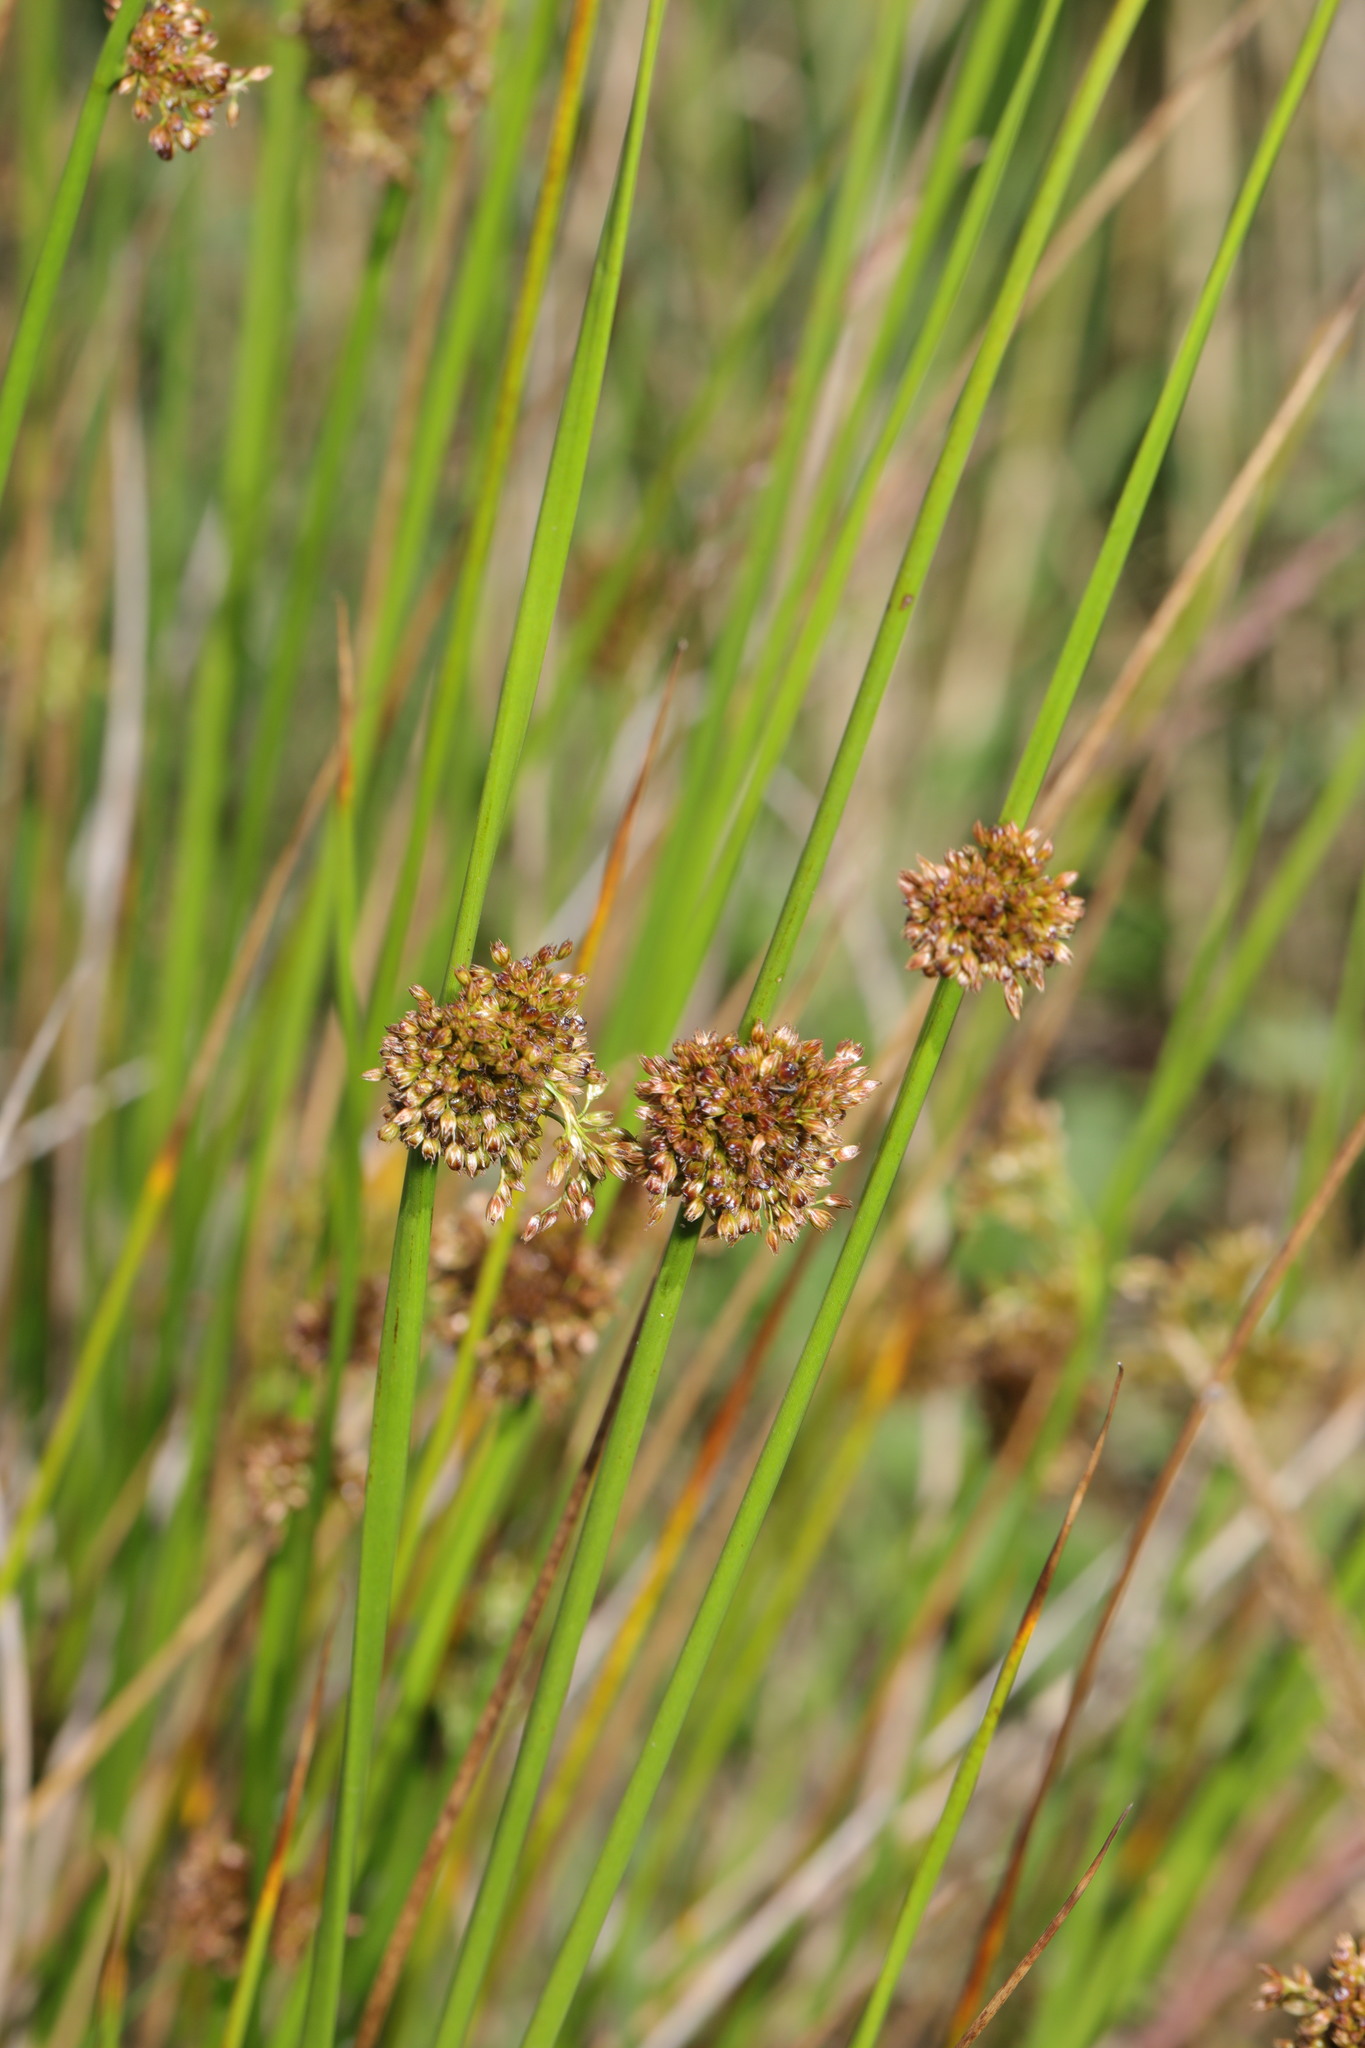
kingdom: Plantae
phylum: Tracheophyta
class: Liliopsida
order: Poales
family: Juncaceae
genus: Juncus
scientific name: Juncus effusus
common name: Soft rush
